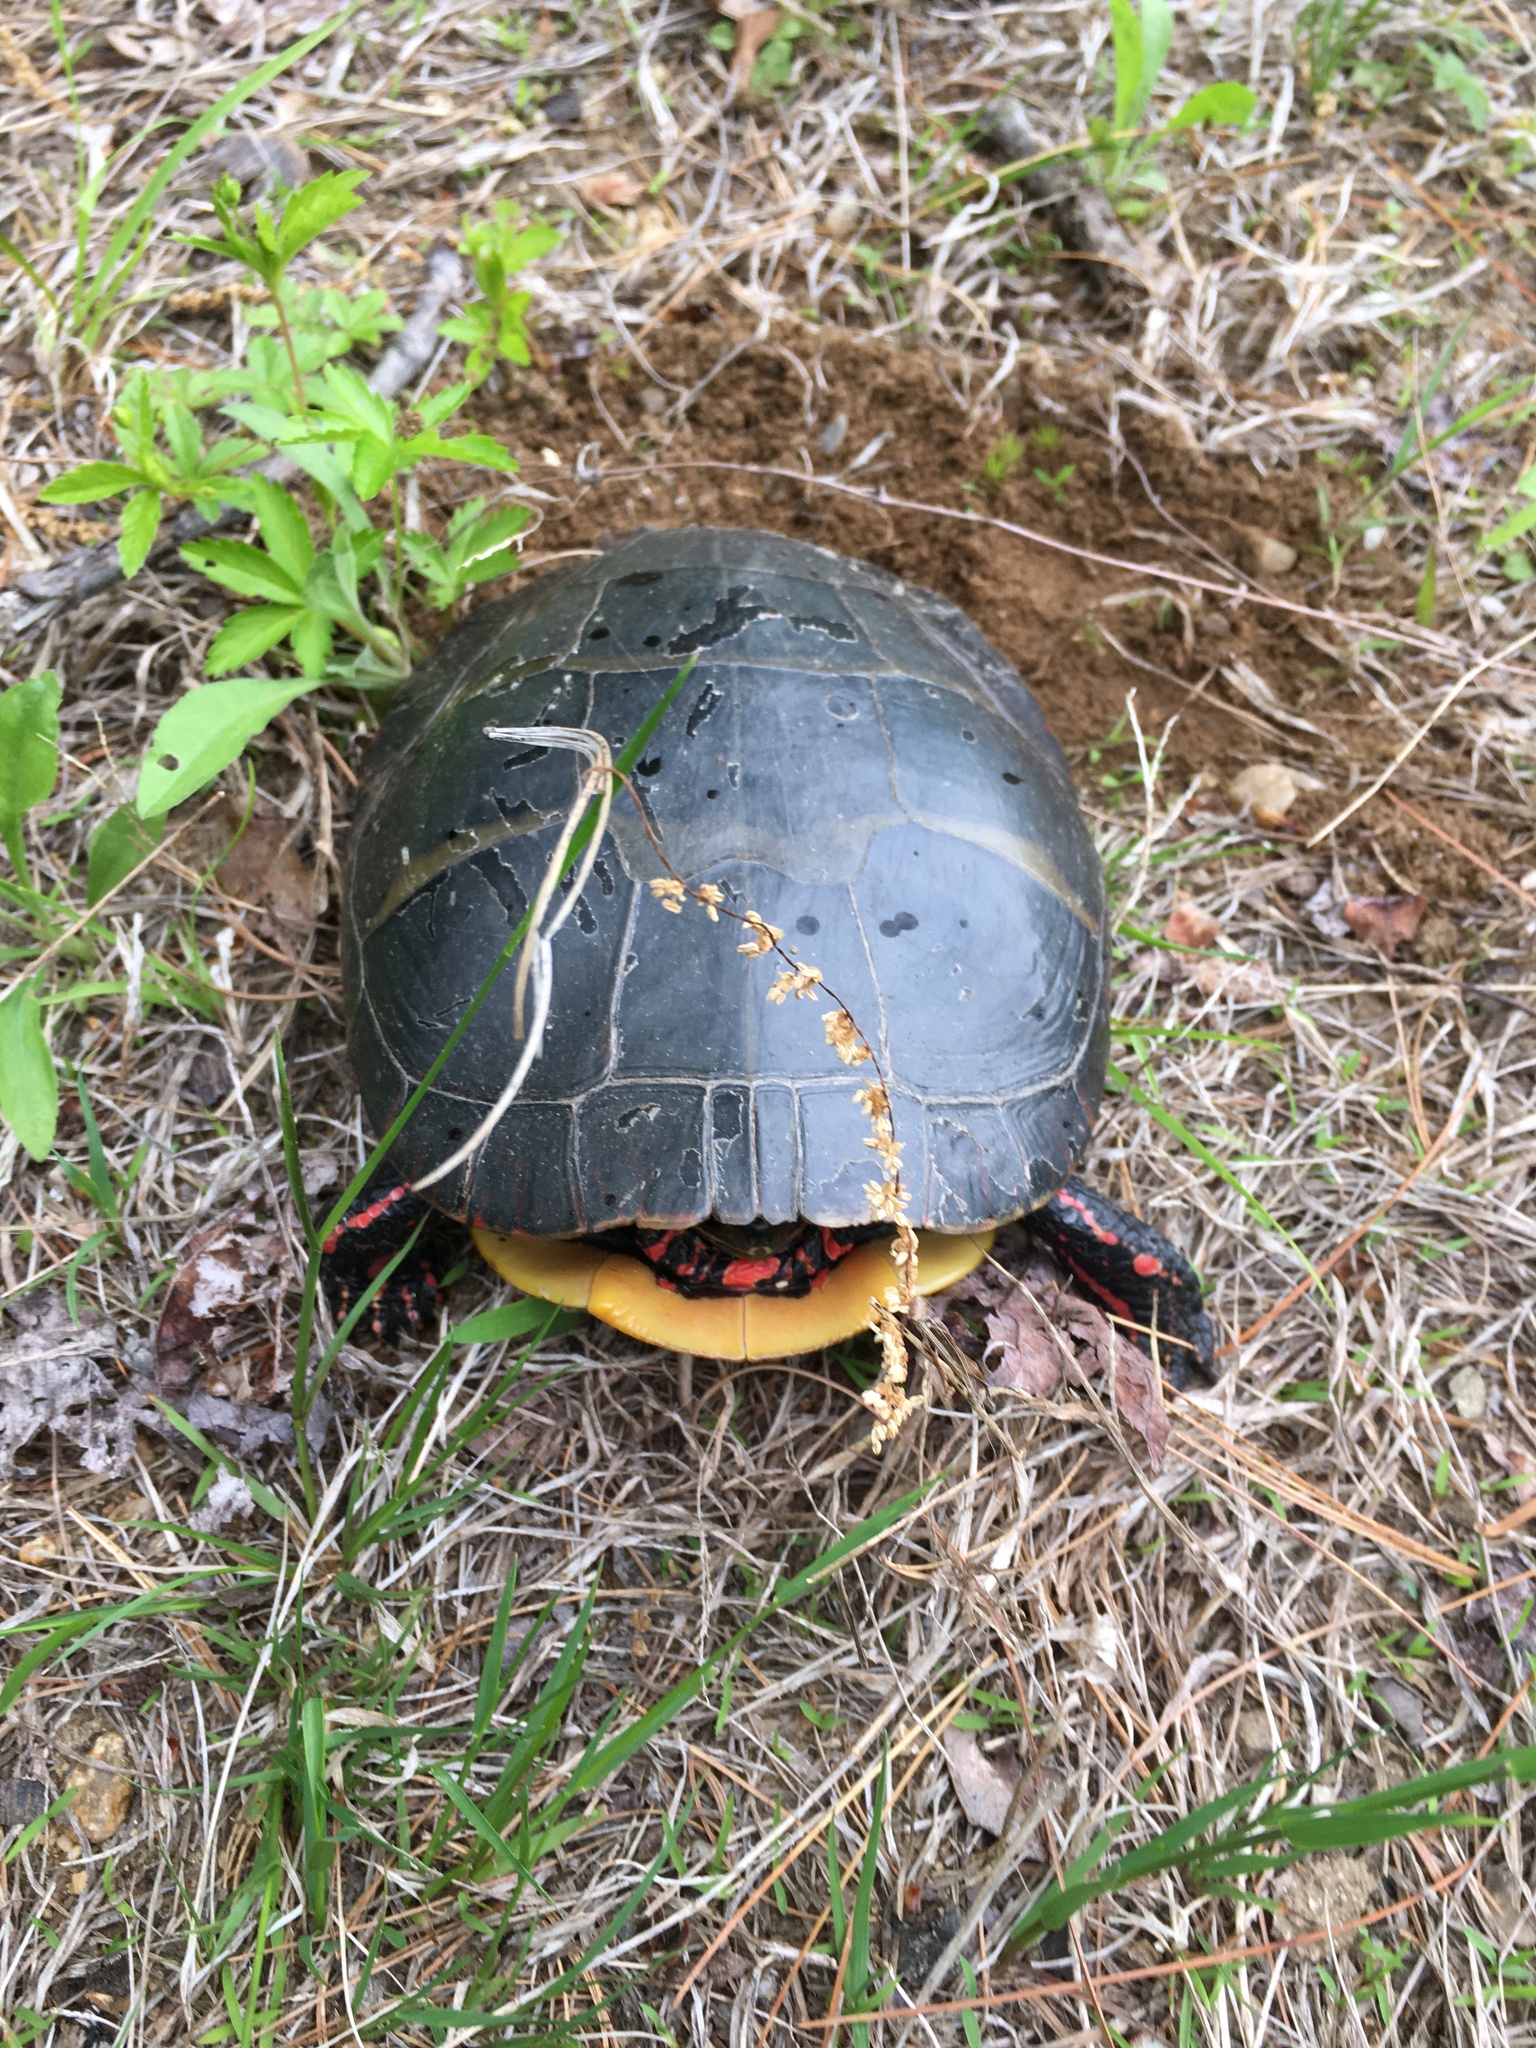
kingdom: Animalia
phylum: Chordata
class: Testudines
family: Emydidae
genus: Chrysemys
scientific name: Chrysemys picta
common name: Painted turtle
